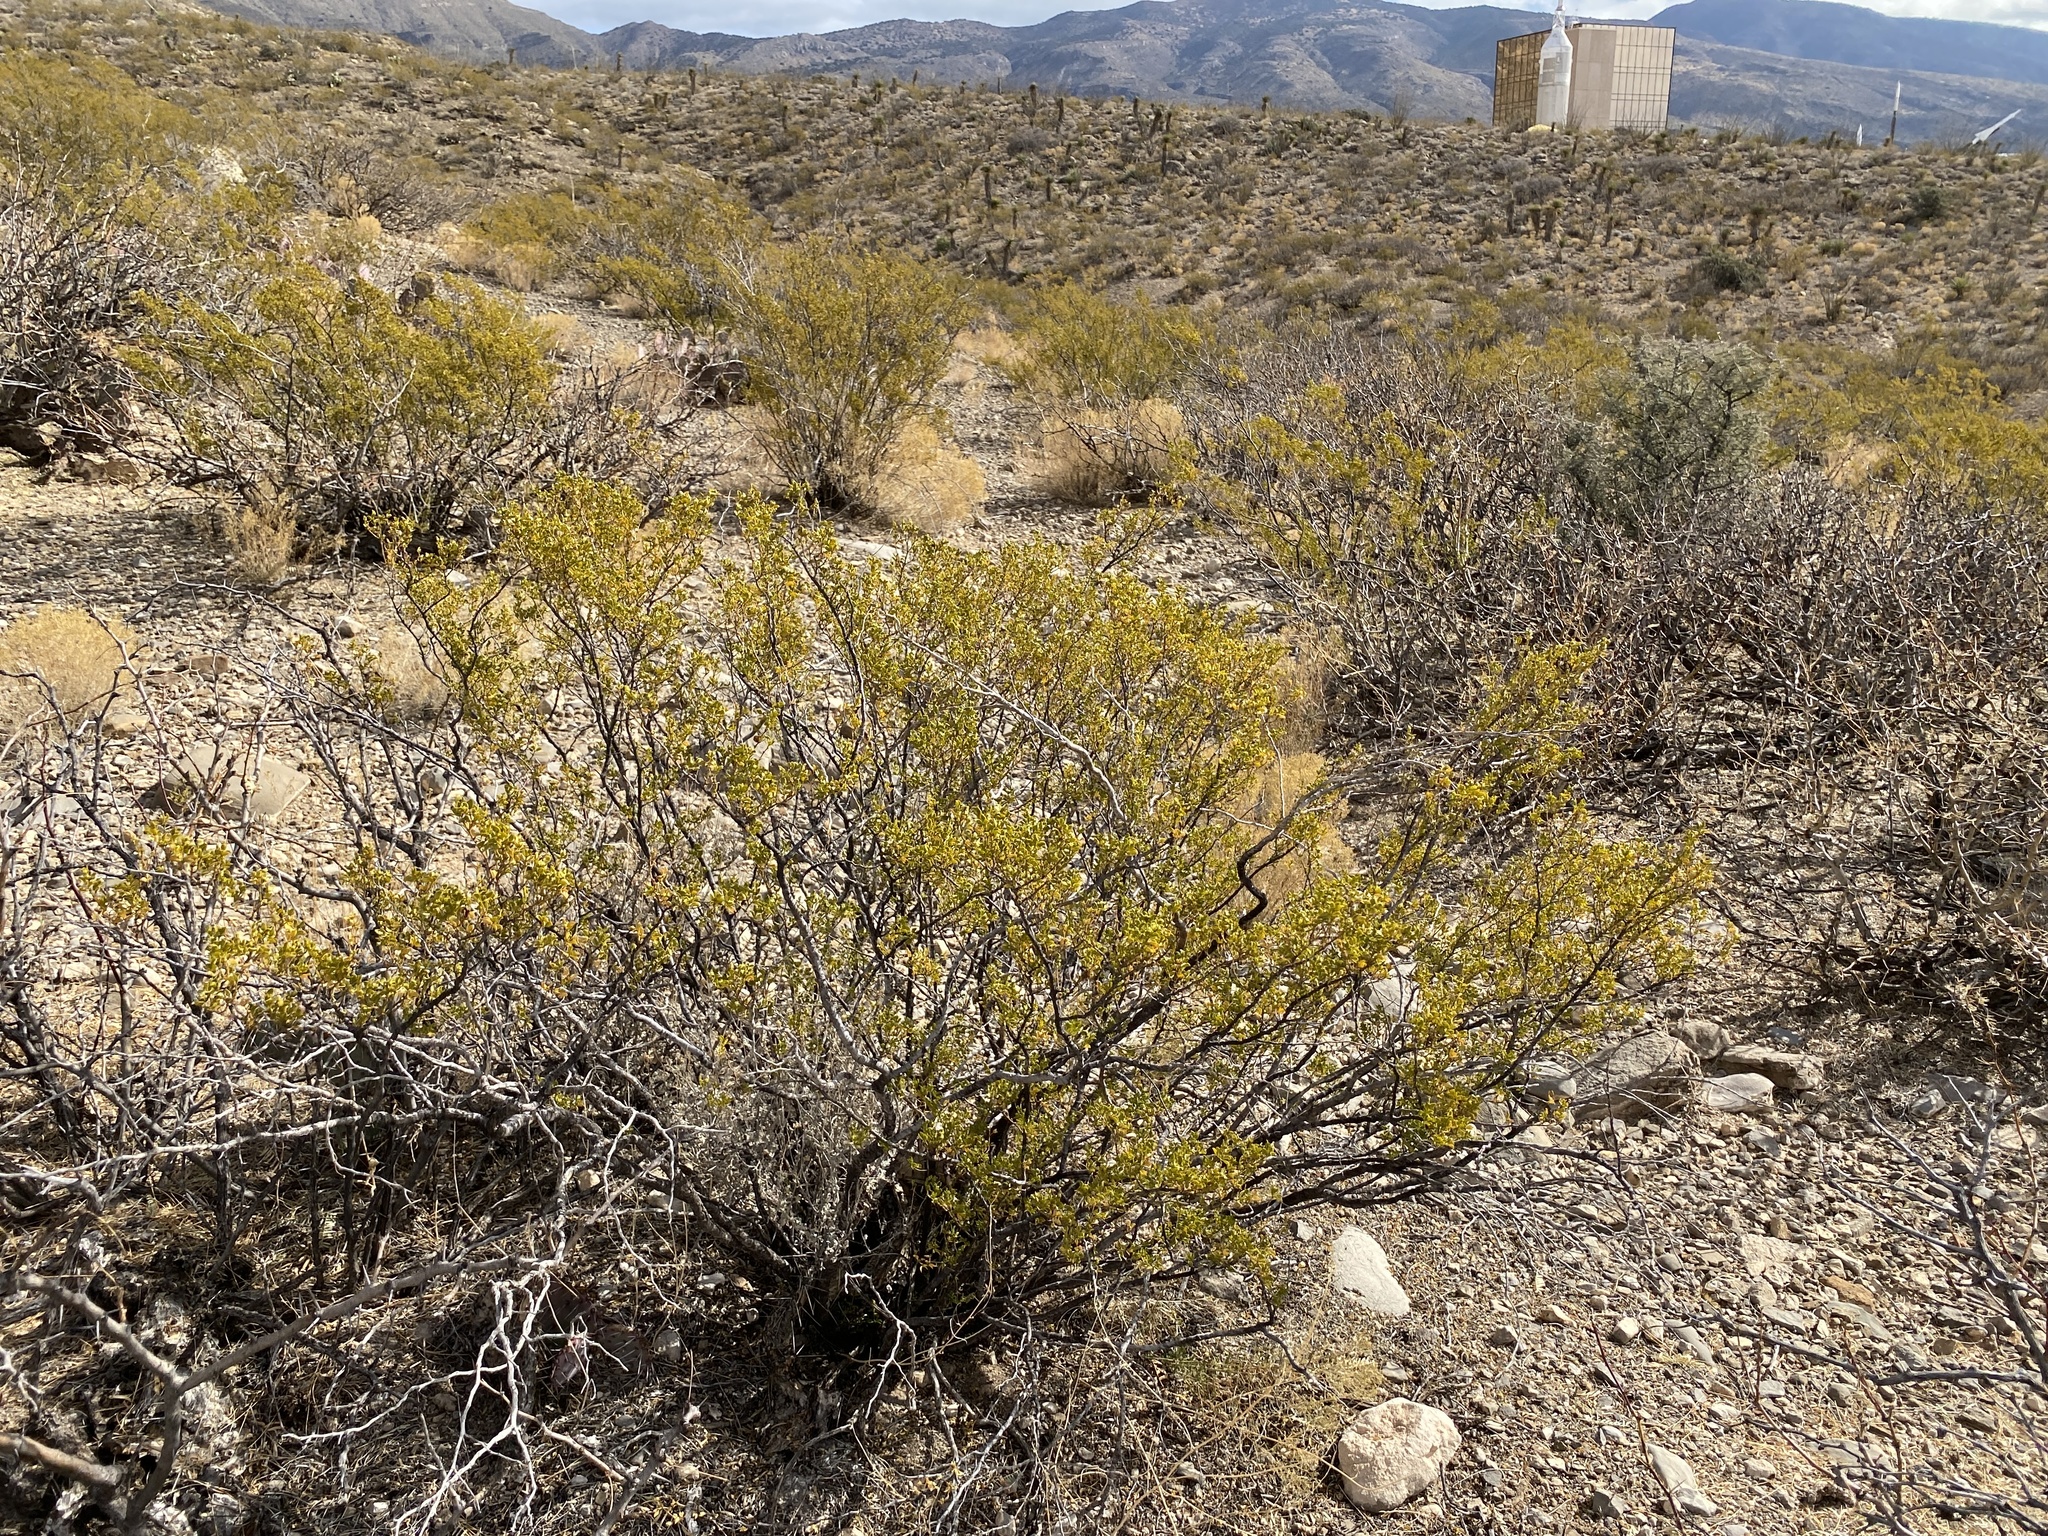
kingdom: Plantae
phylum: Tracheophyta
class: Magnoliopsida
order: Zygophyllales
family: Zygophyllaceae
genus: Larrea
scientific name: Larrea tridentata
